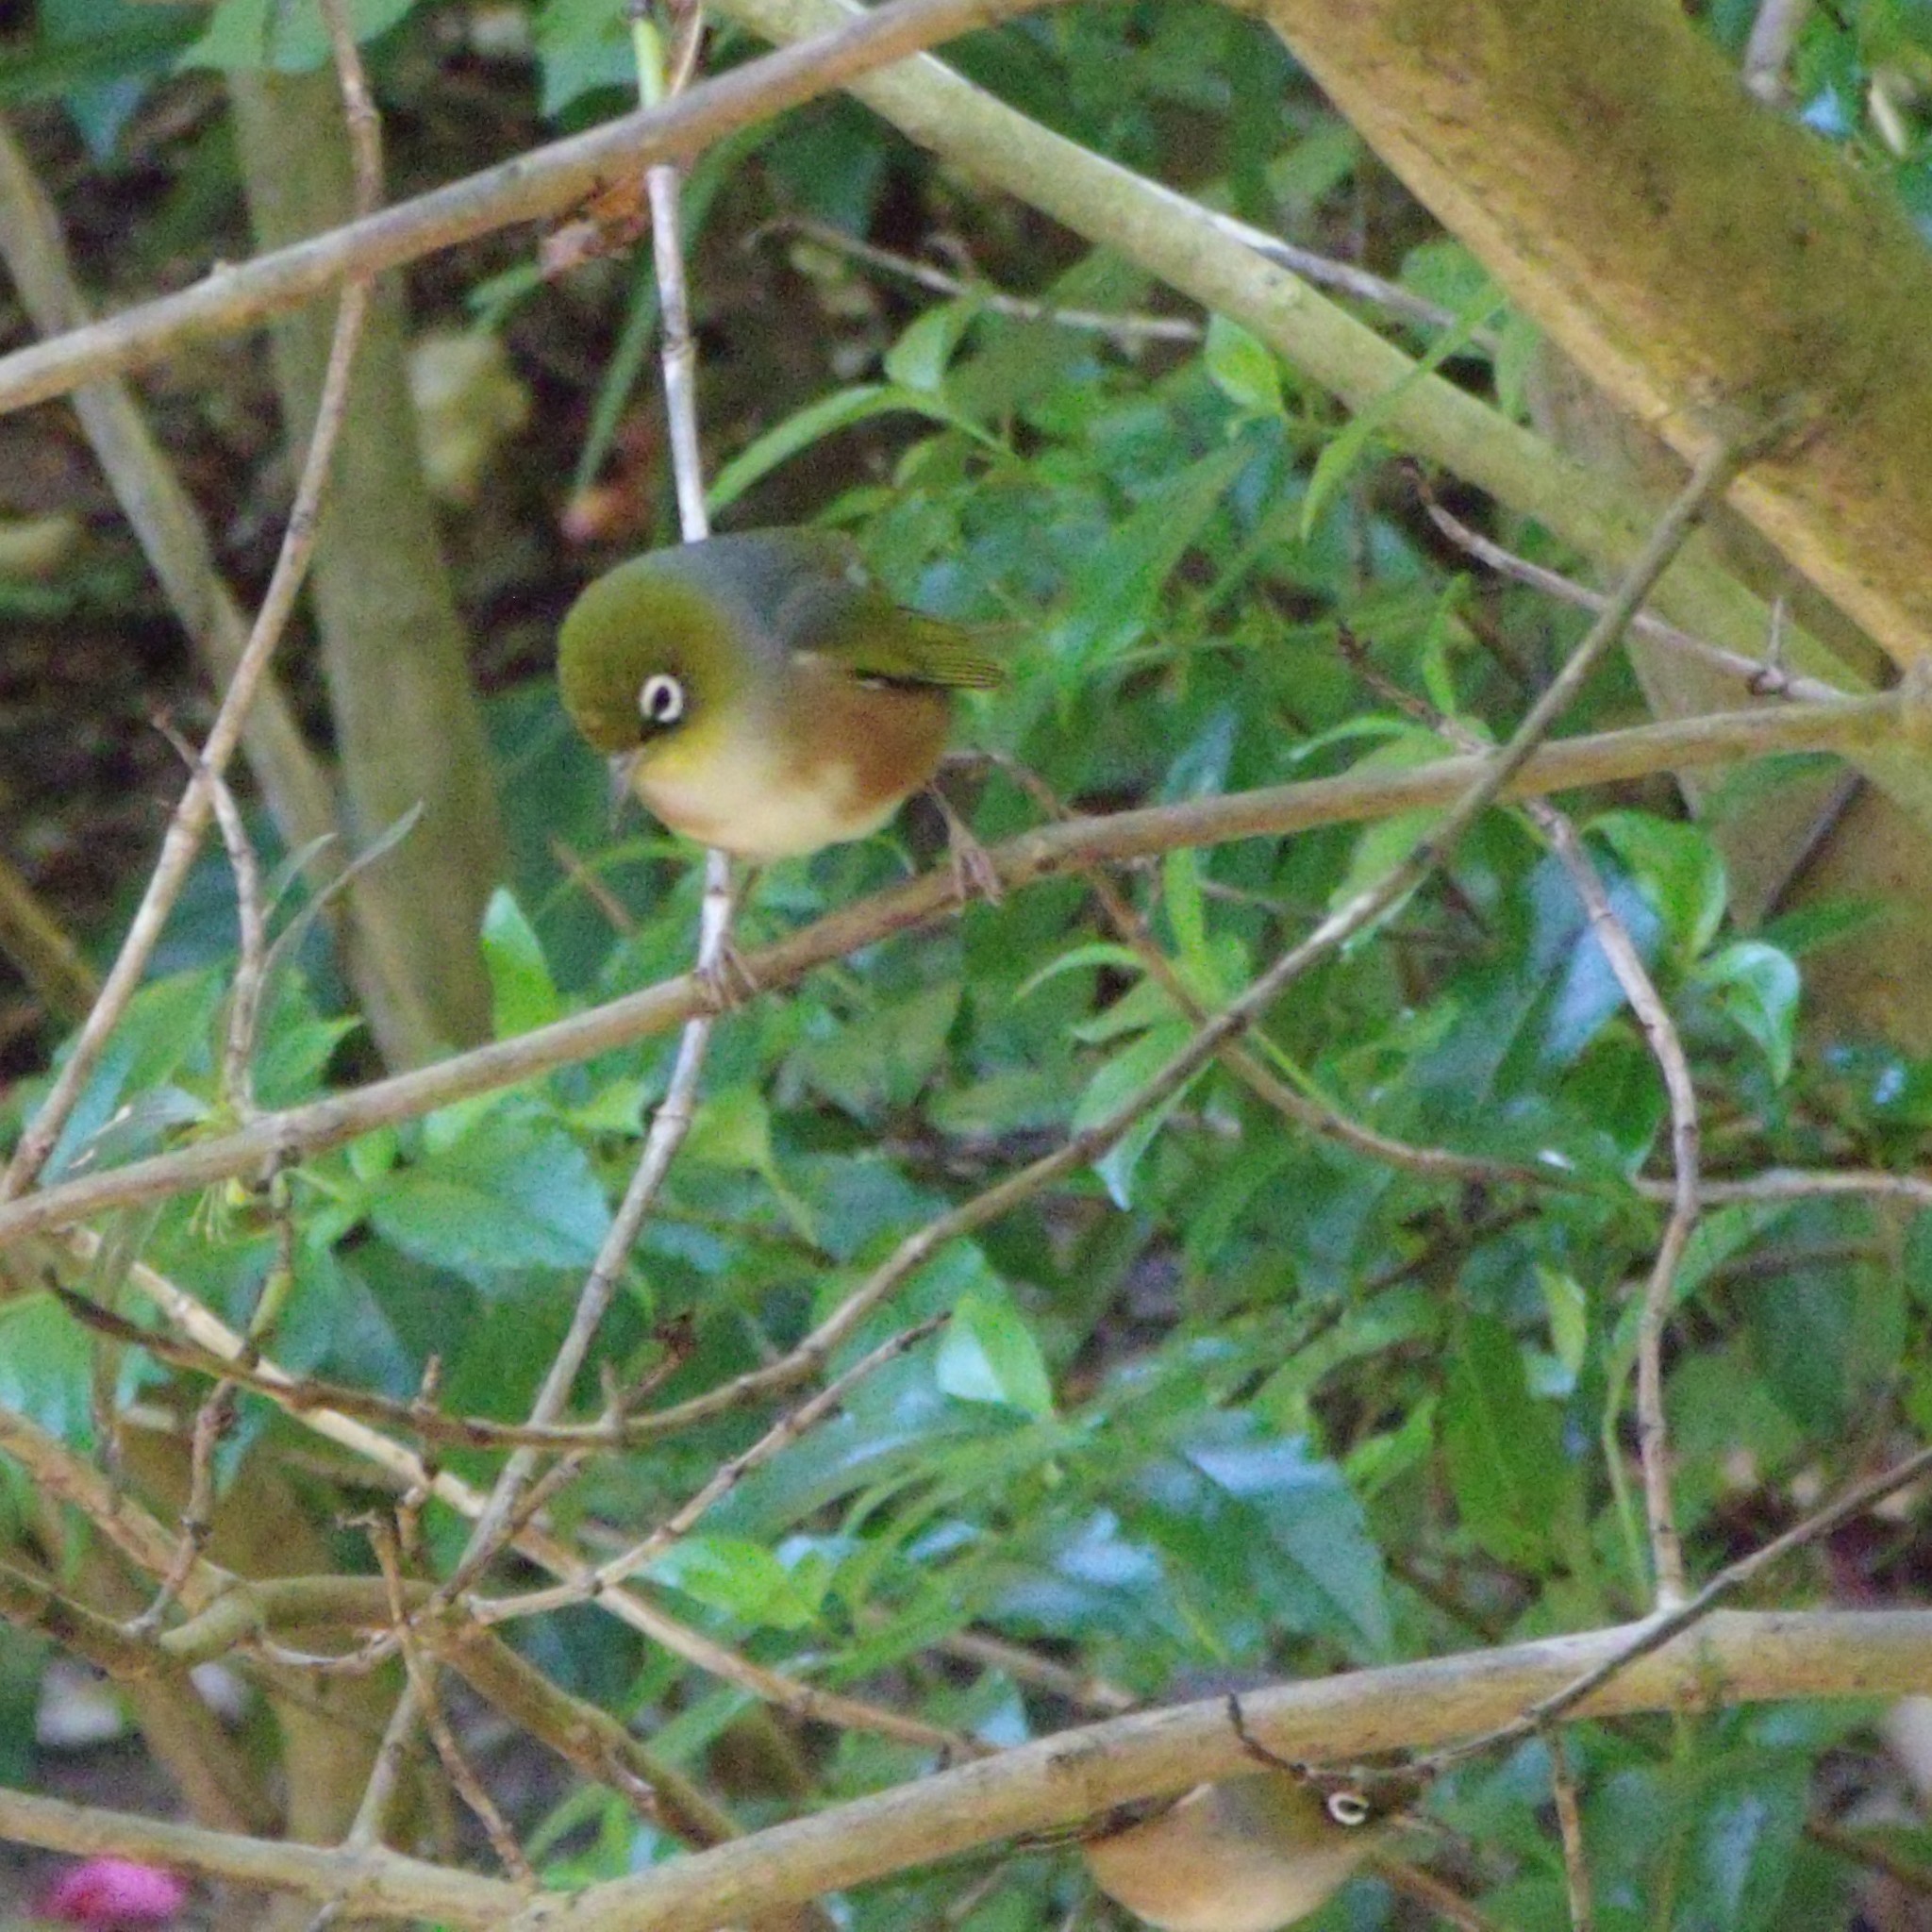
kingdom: Animalia
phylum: Chordata
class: Aves
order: Passeriformes
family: Zosteropidae
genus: Zosterops
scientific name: Zosterops lateralis
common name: Silvereye
